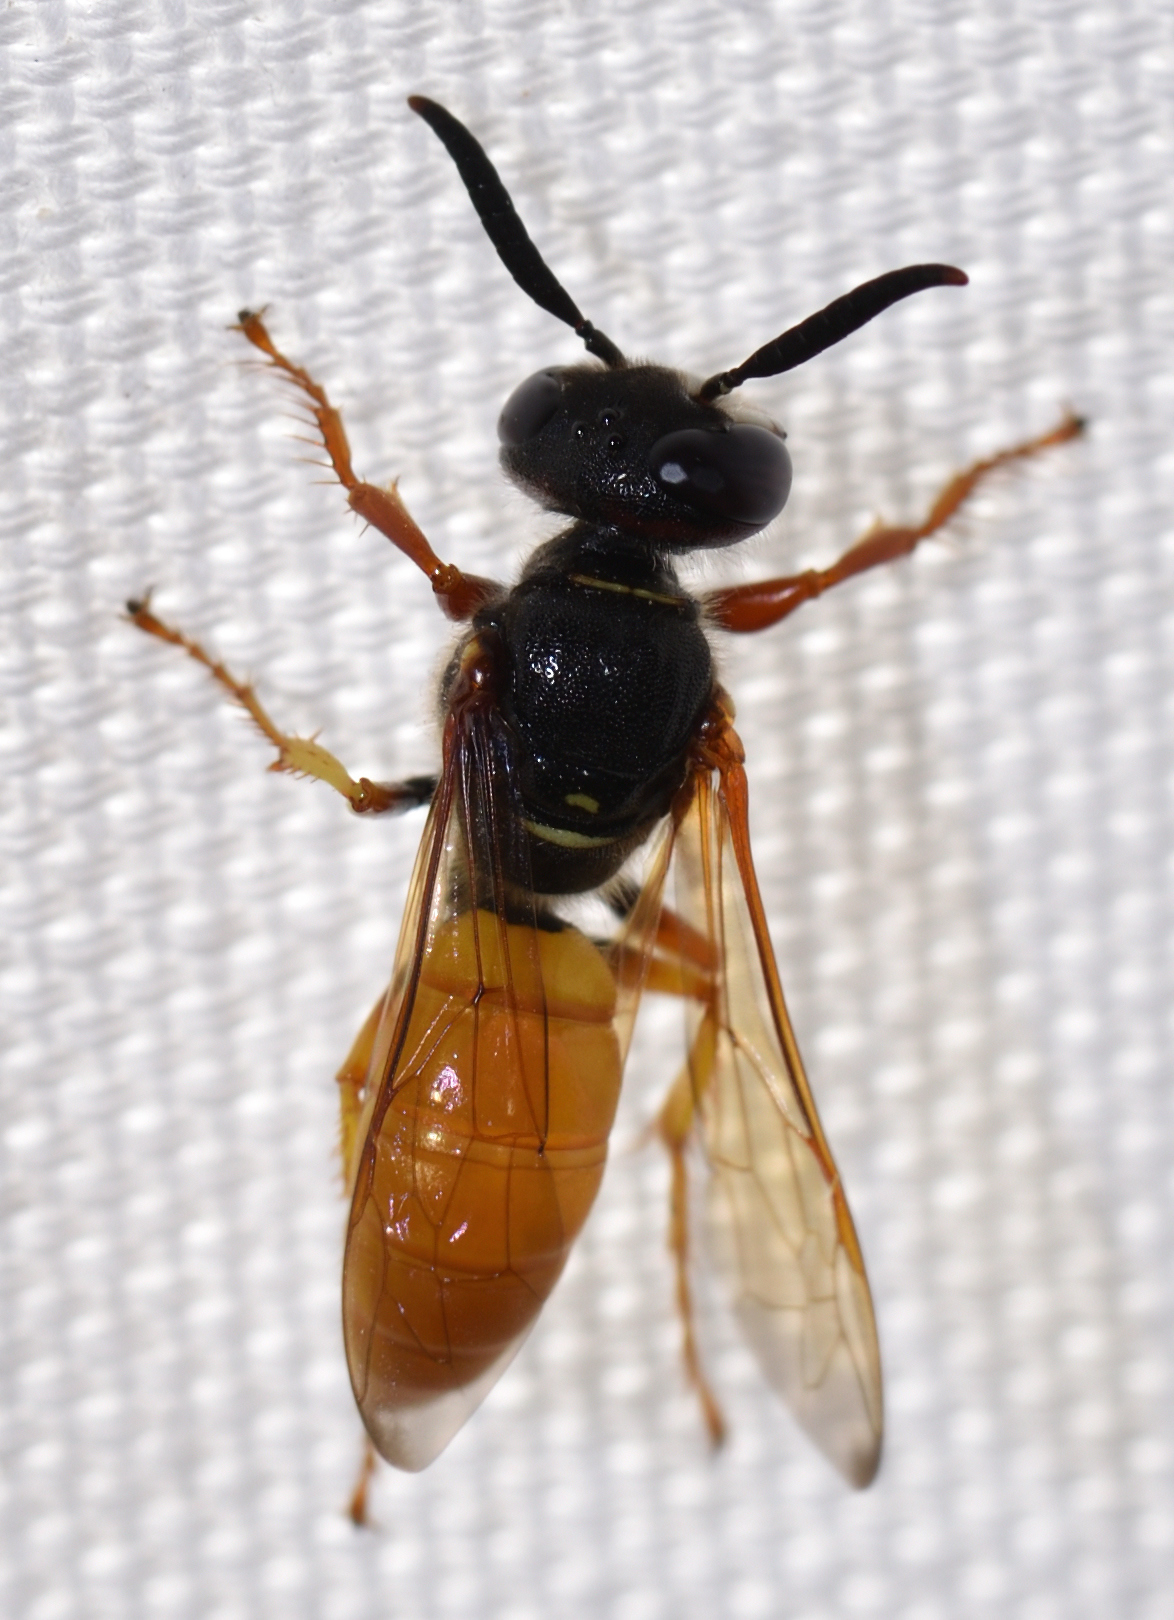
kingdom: Animalia
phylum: Arthropoda
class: Insecta
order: Hymenoptera
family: Crabronidae
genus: Philanthus
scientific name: Philanthus triangulum
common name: Bee wolf
